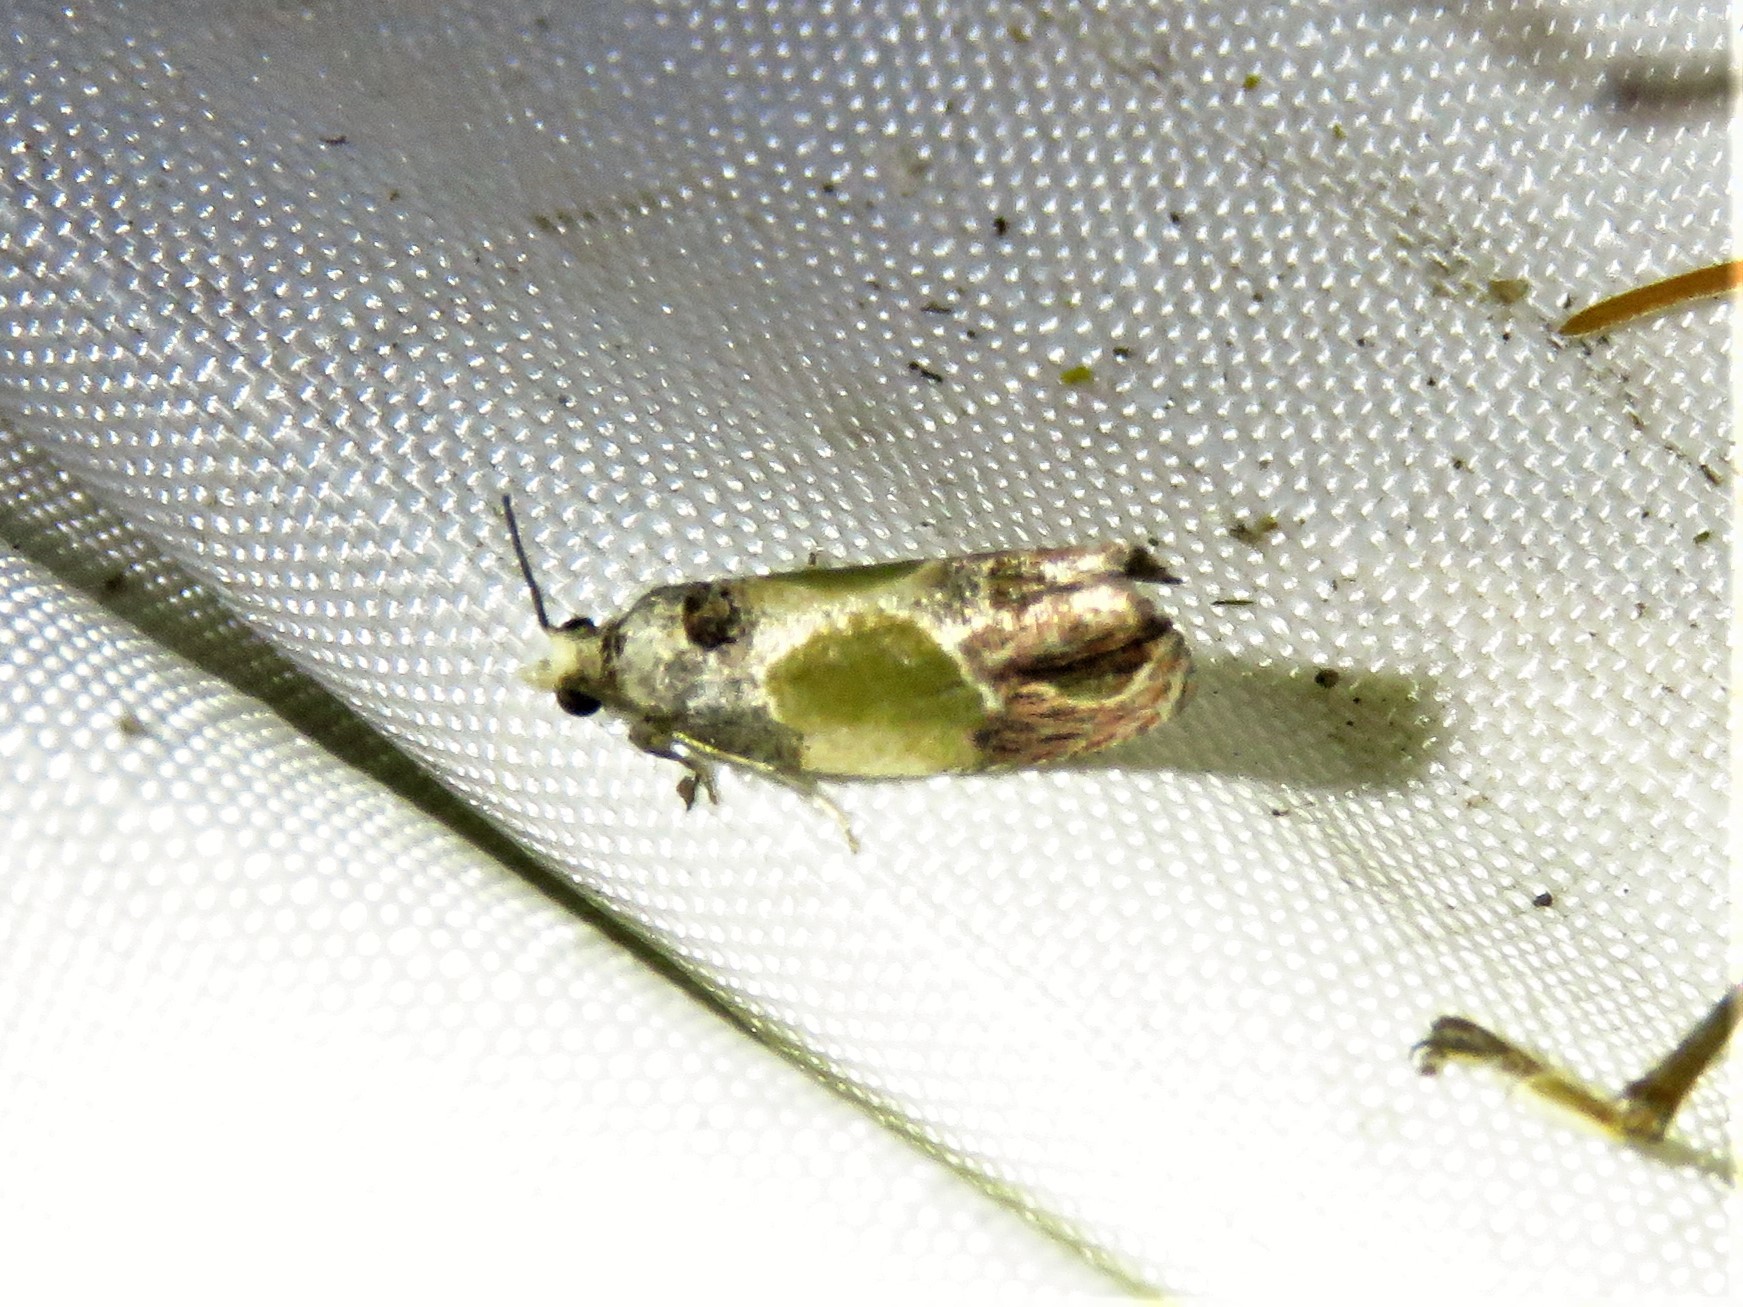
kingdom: Animalia
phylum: Arthropoda
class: Insecta
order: Lepidoptera
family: Tortricidae
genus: Eumarozia
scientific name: Eumarozia malachitana
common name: Sculptured moth
